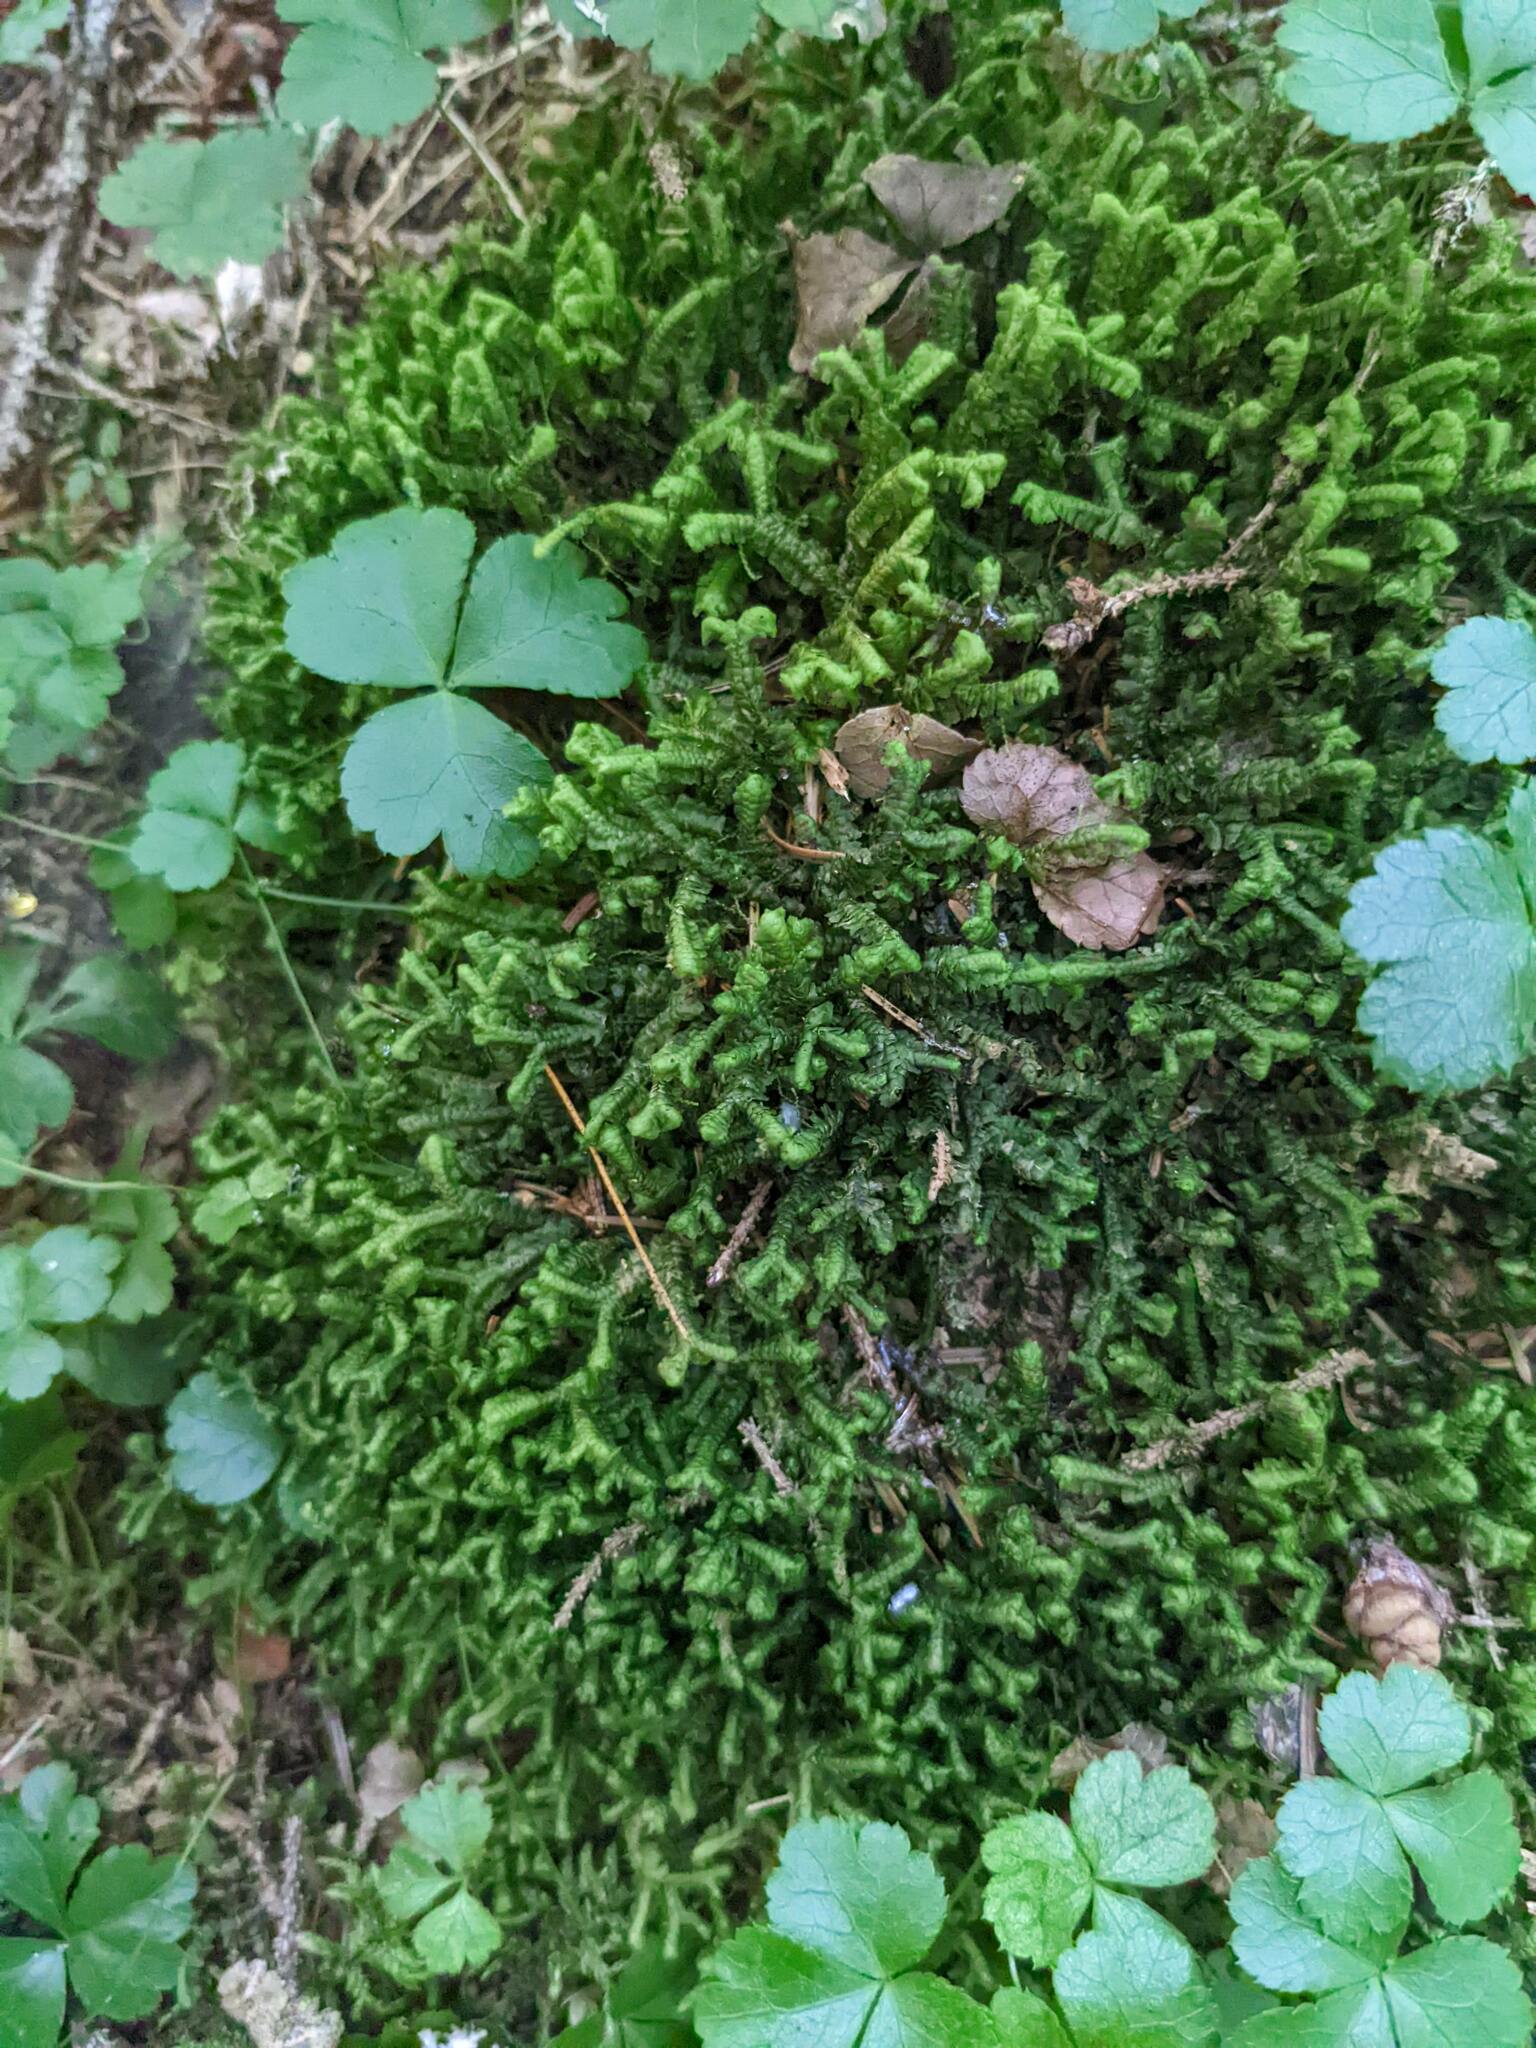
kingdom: Plantae
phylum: Tracheophyta
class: Magnoliopsida
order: Ranunculales
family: Ranunculaceae
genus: Coptis
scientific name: Coptis trifolia
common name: Canker-root
